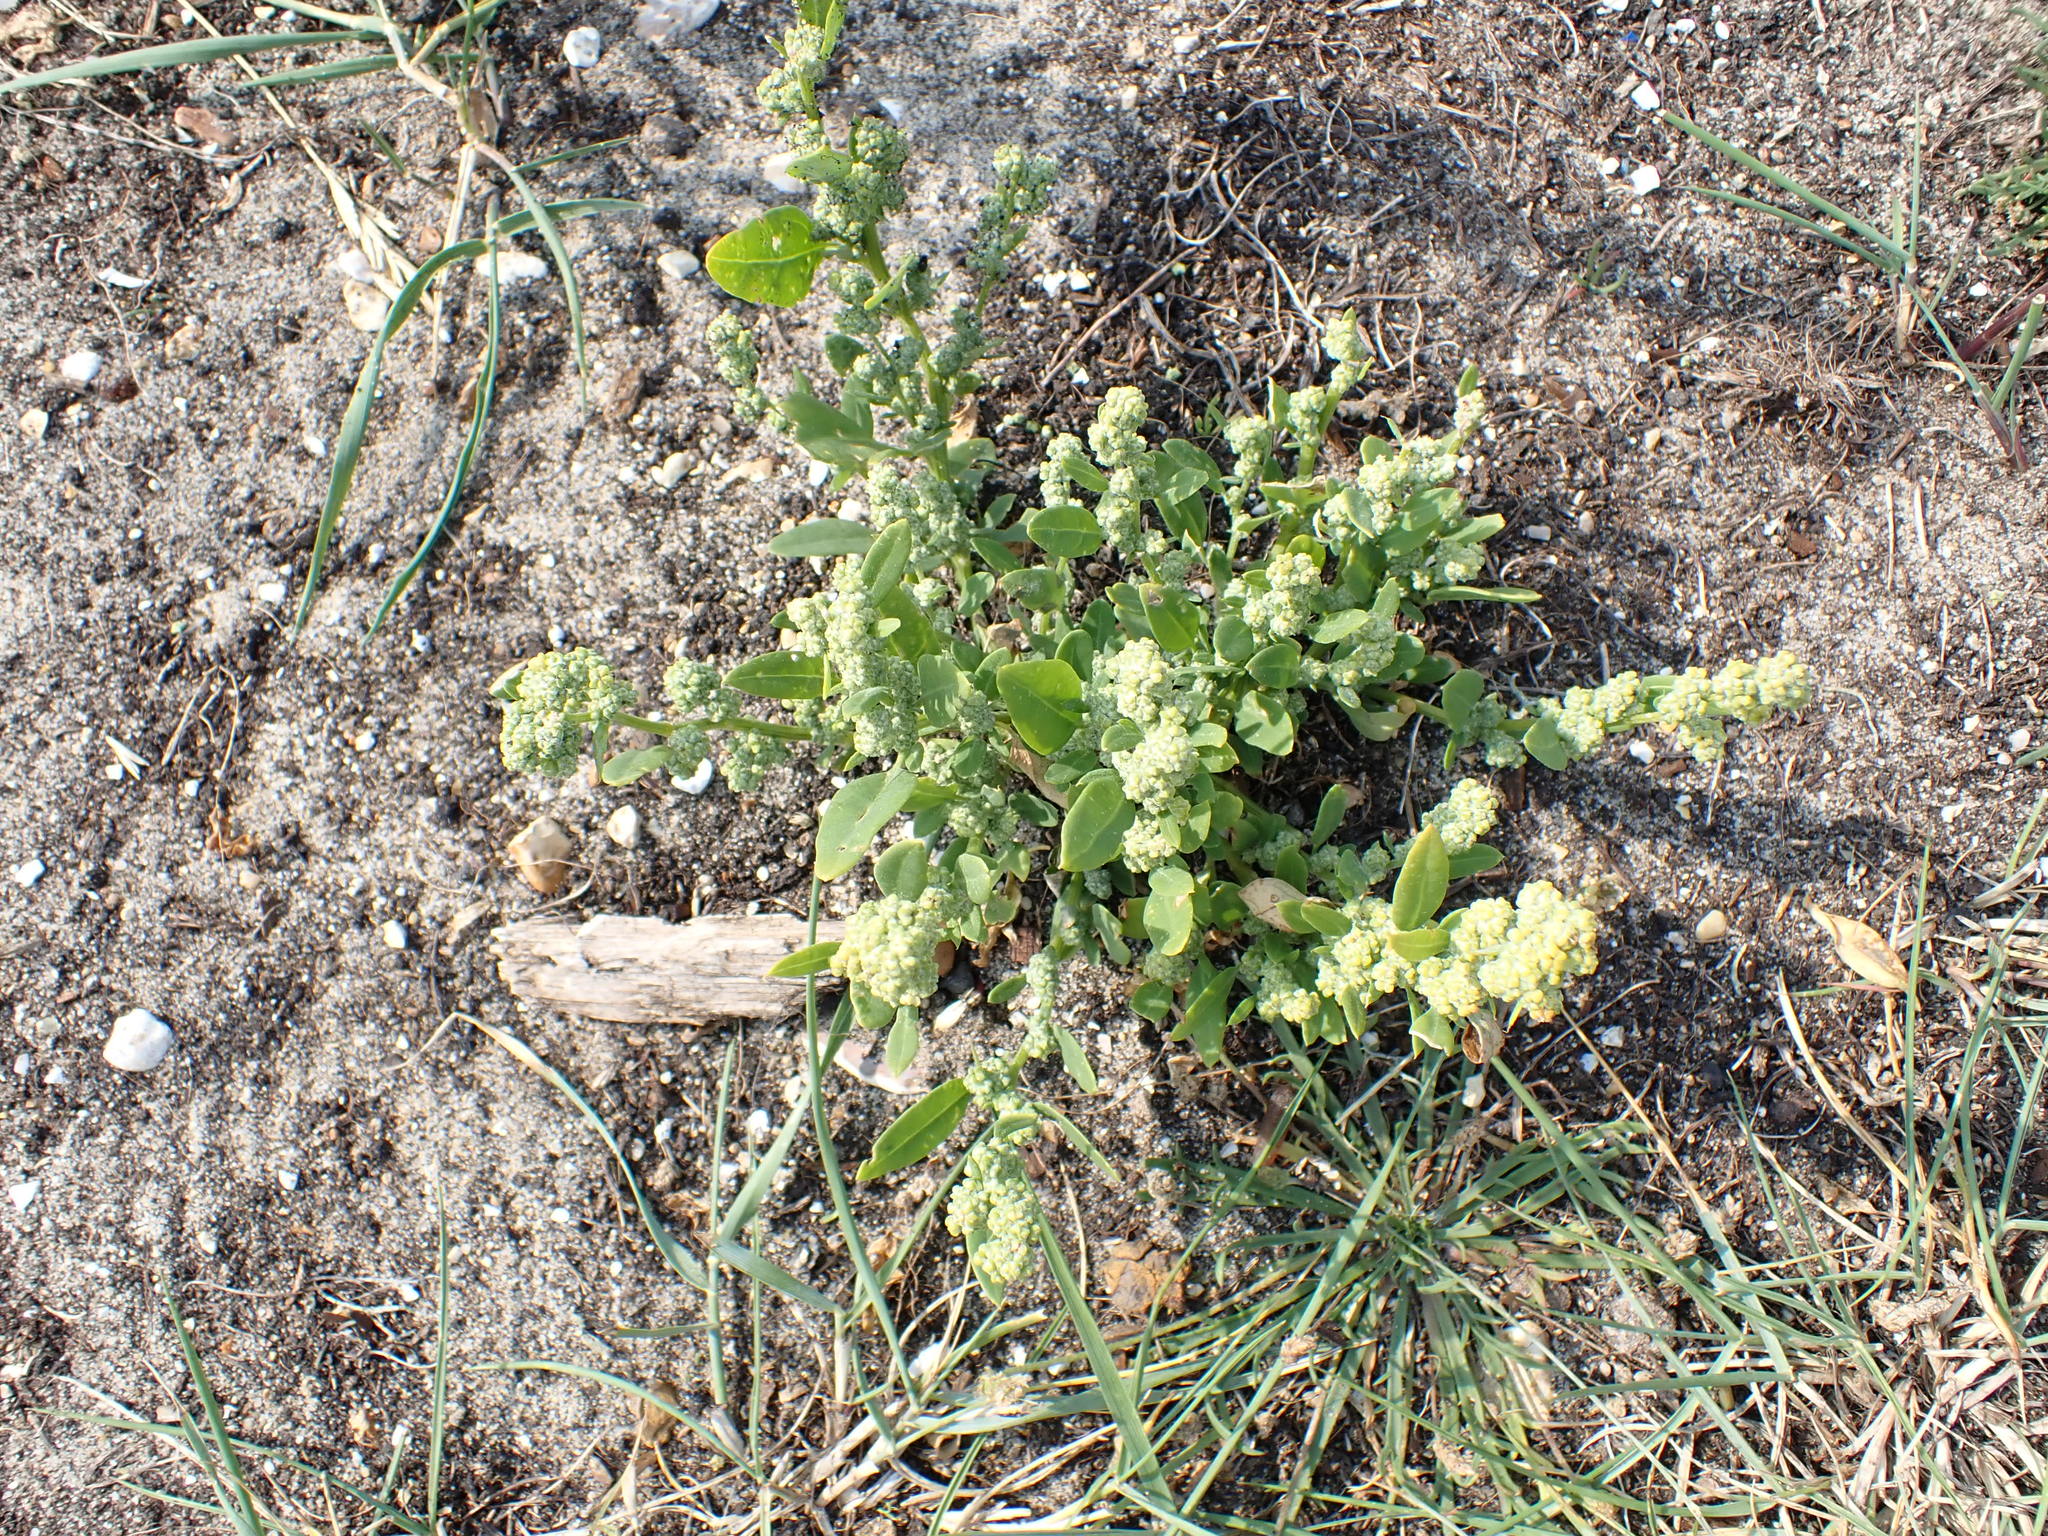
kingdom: Plantae
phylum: Tracheophyta
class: Magnoliopsida
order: Caryophyllales
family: Amaranthaceae
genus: Chenopodium
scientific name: Chenopodium album
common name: Fat-hen
